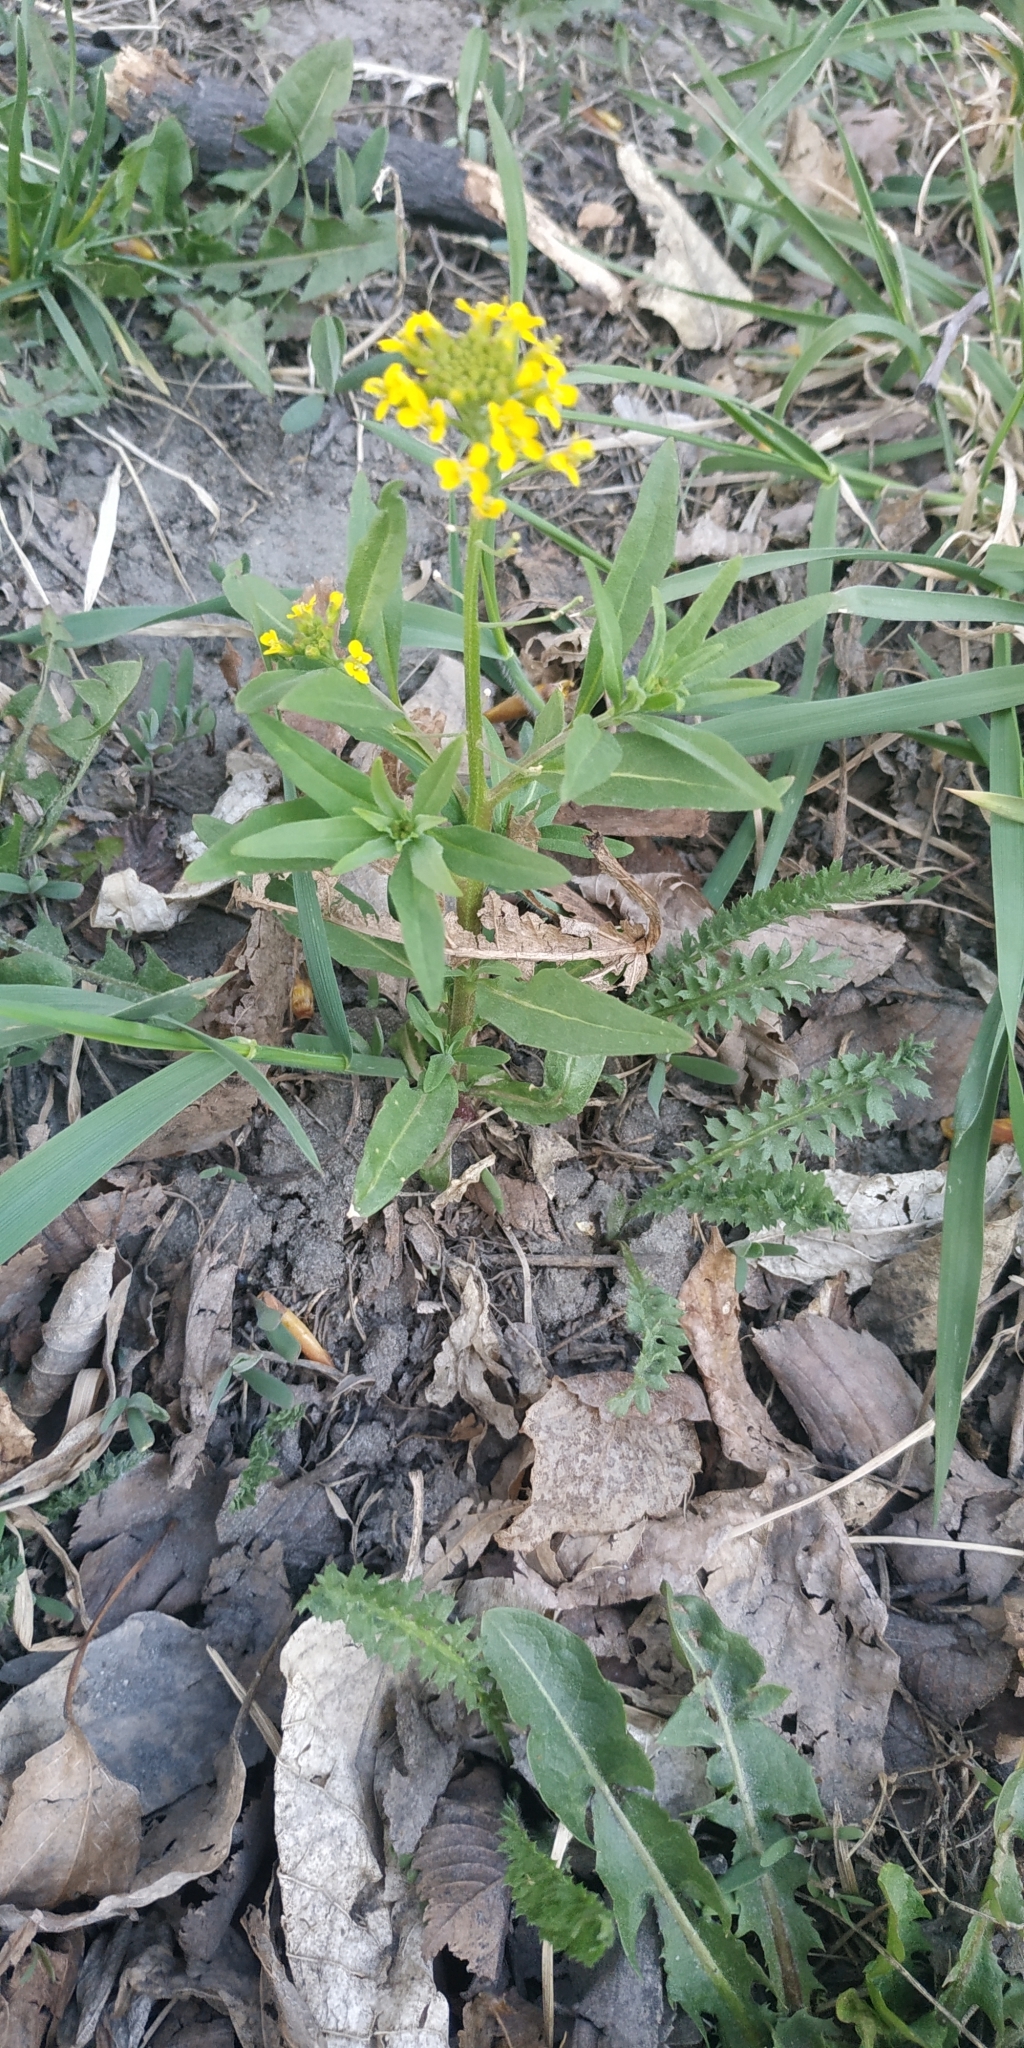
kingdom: Plantae
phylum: Tracheophyta
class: Magnoliopsida
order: Brassicales
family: Brassicaceae
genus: Erysimum
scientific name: Erysimum cheiranthoides
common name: Treacle mustard
